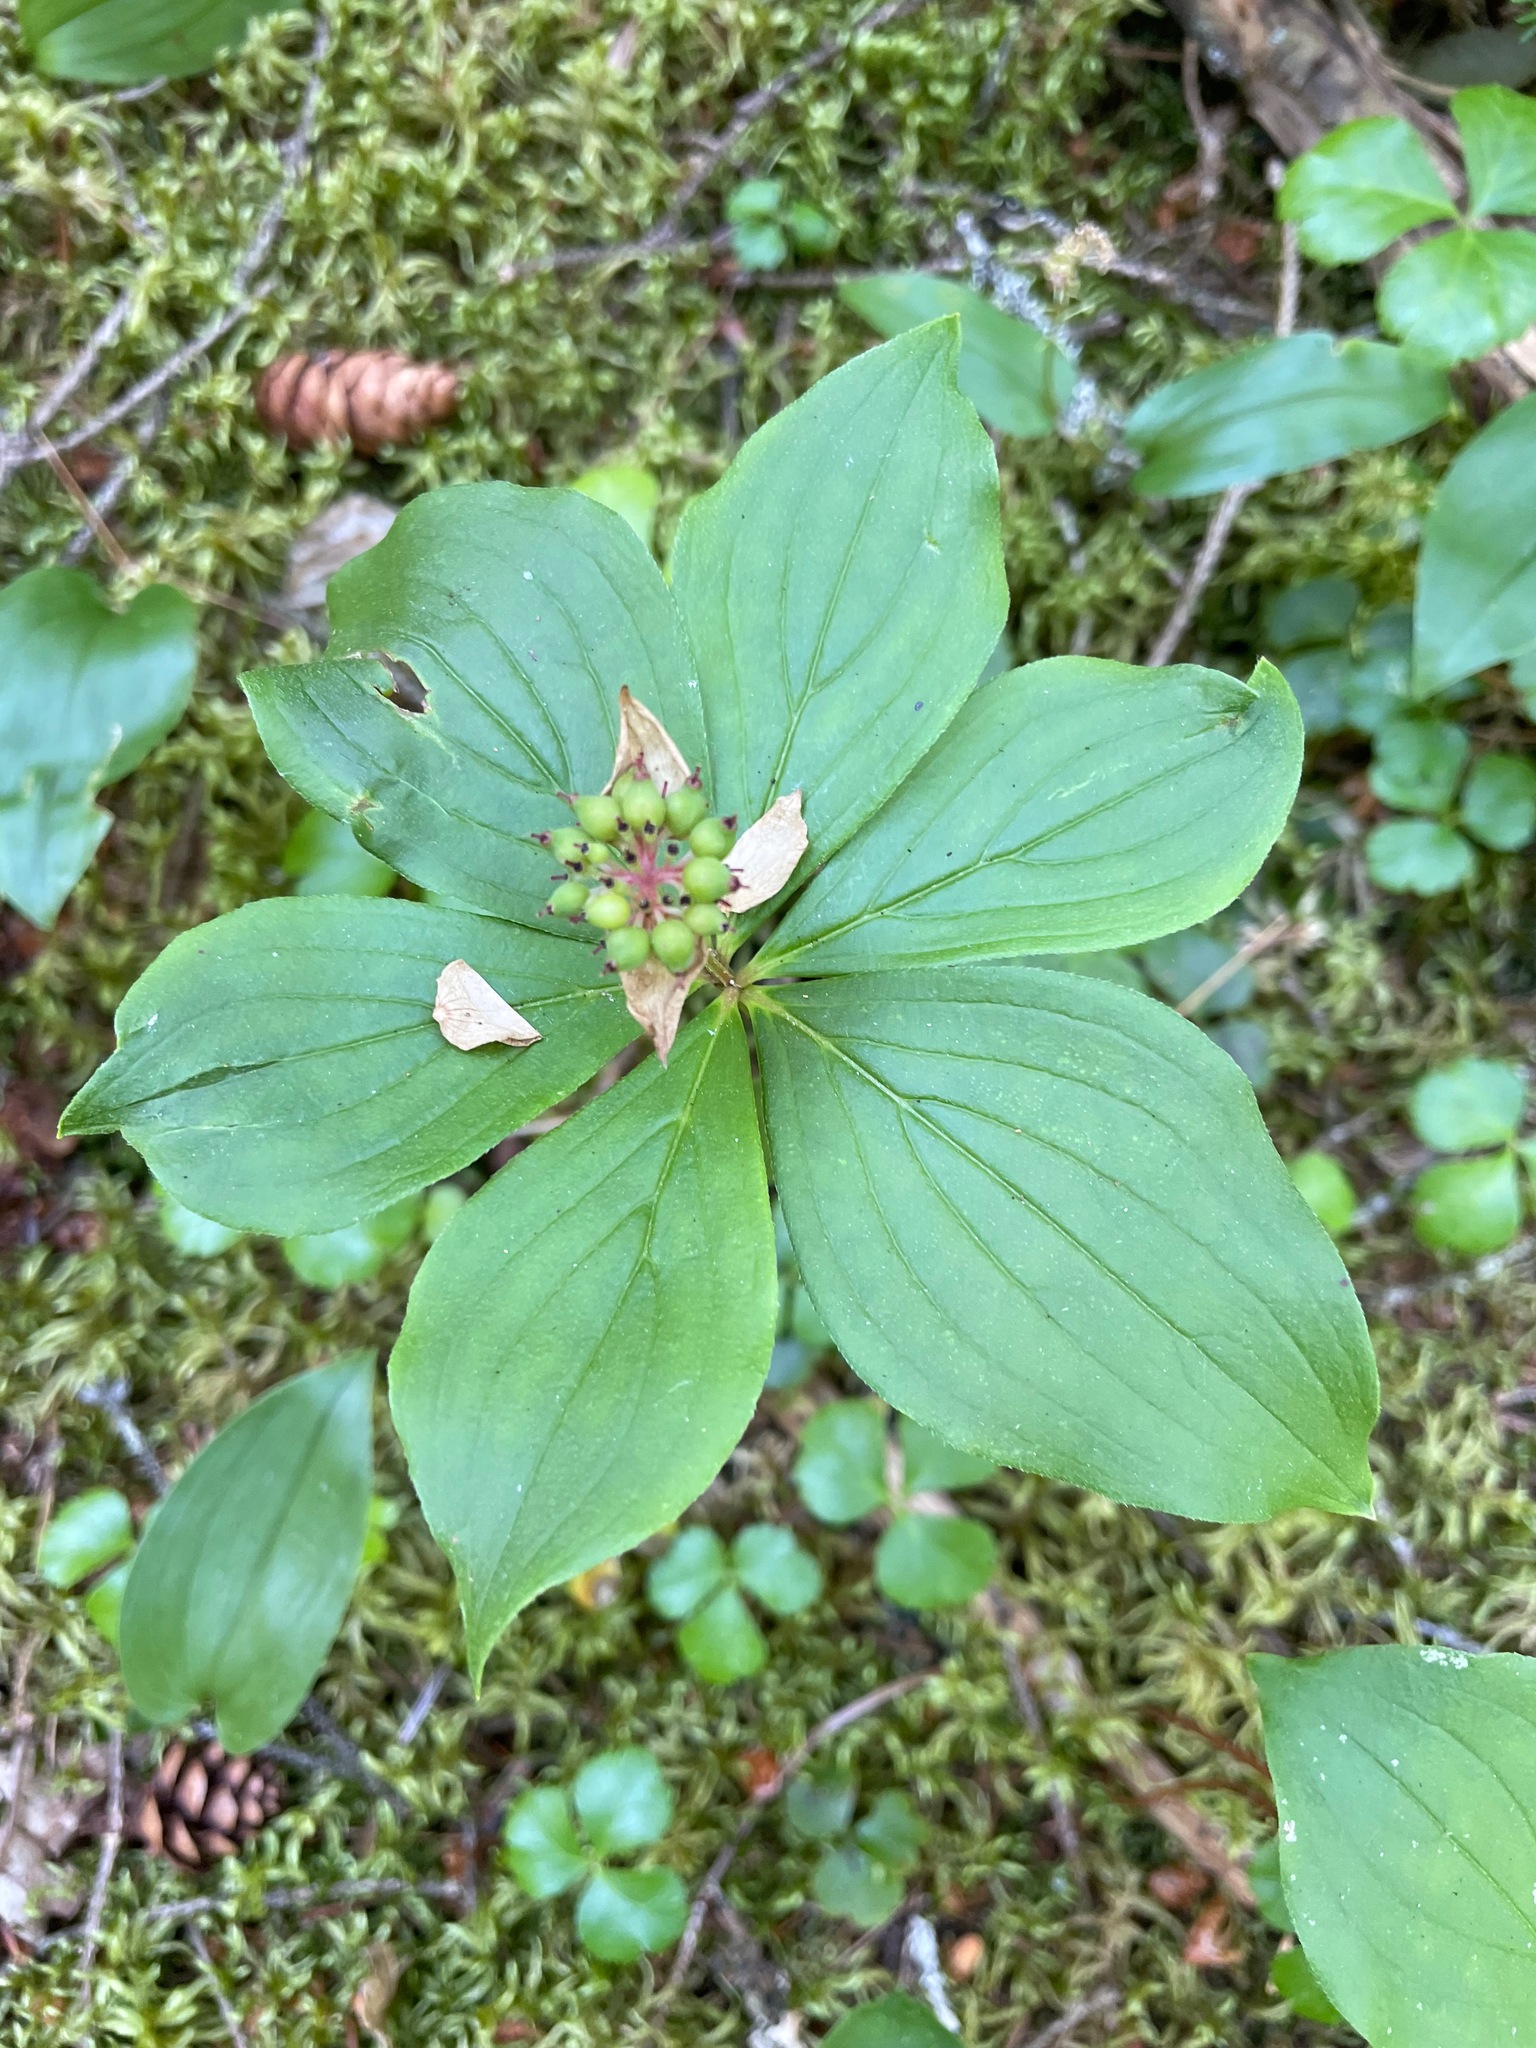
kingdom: Plantae
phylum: Tracheophyta
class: Magnoliopsida
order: Cornales
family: Cornaceae
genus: Cornus
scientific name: Cornus canadensis
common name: Creeping dogwood
